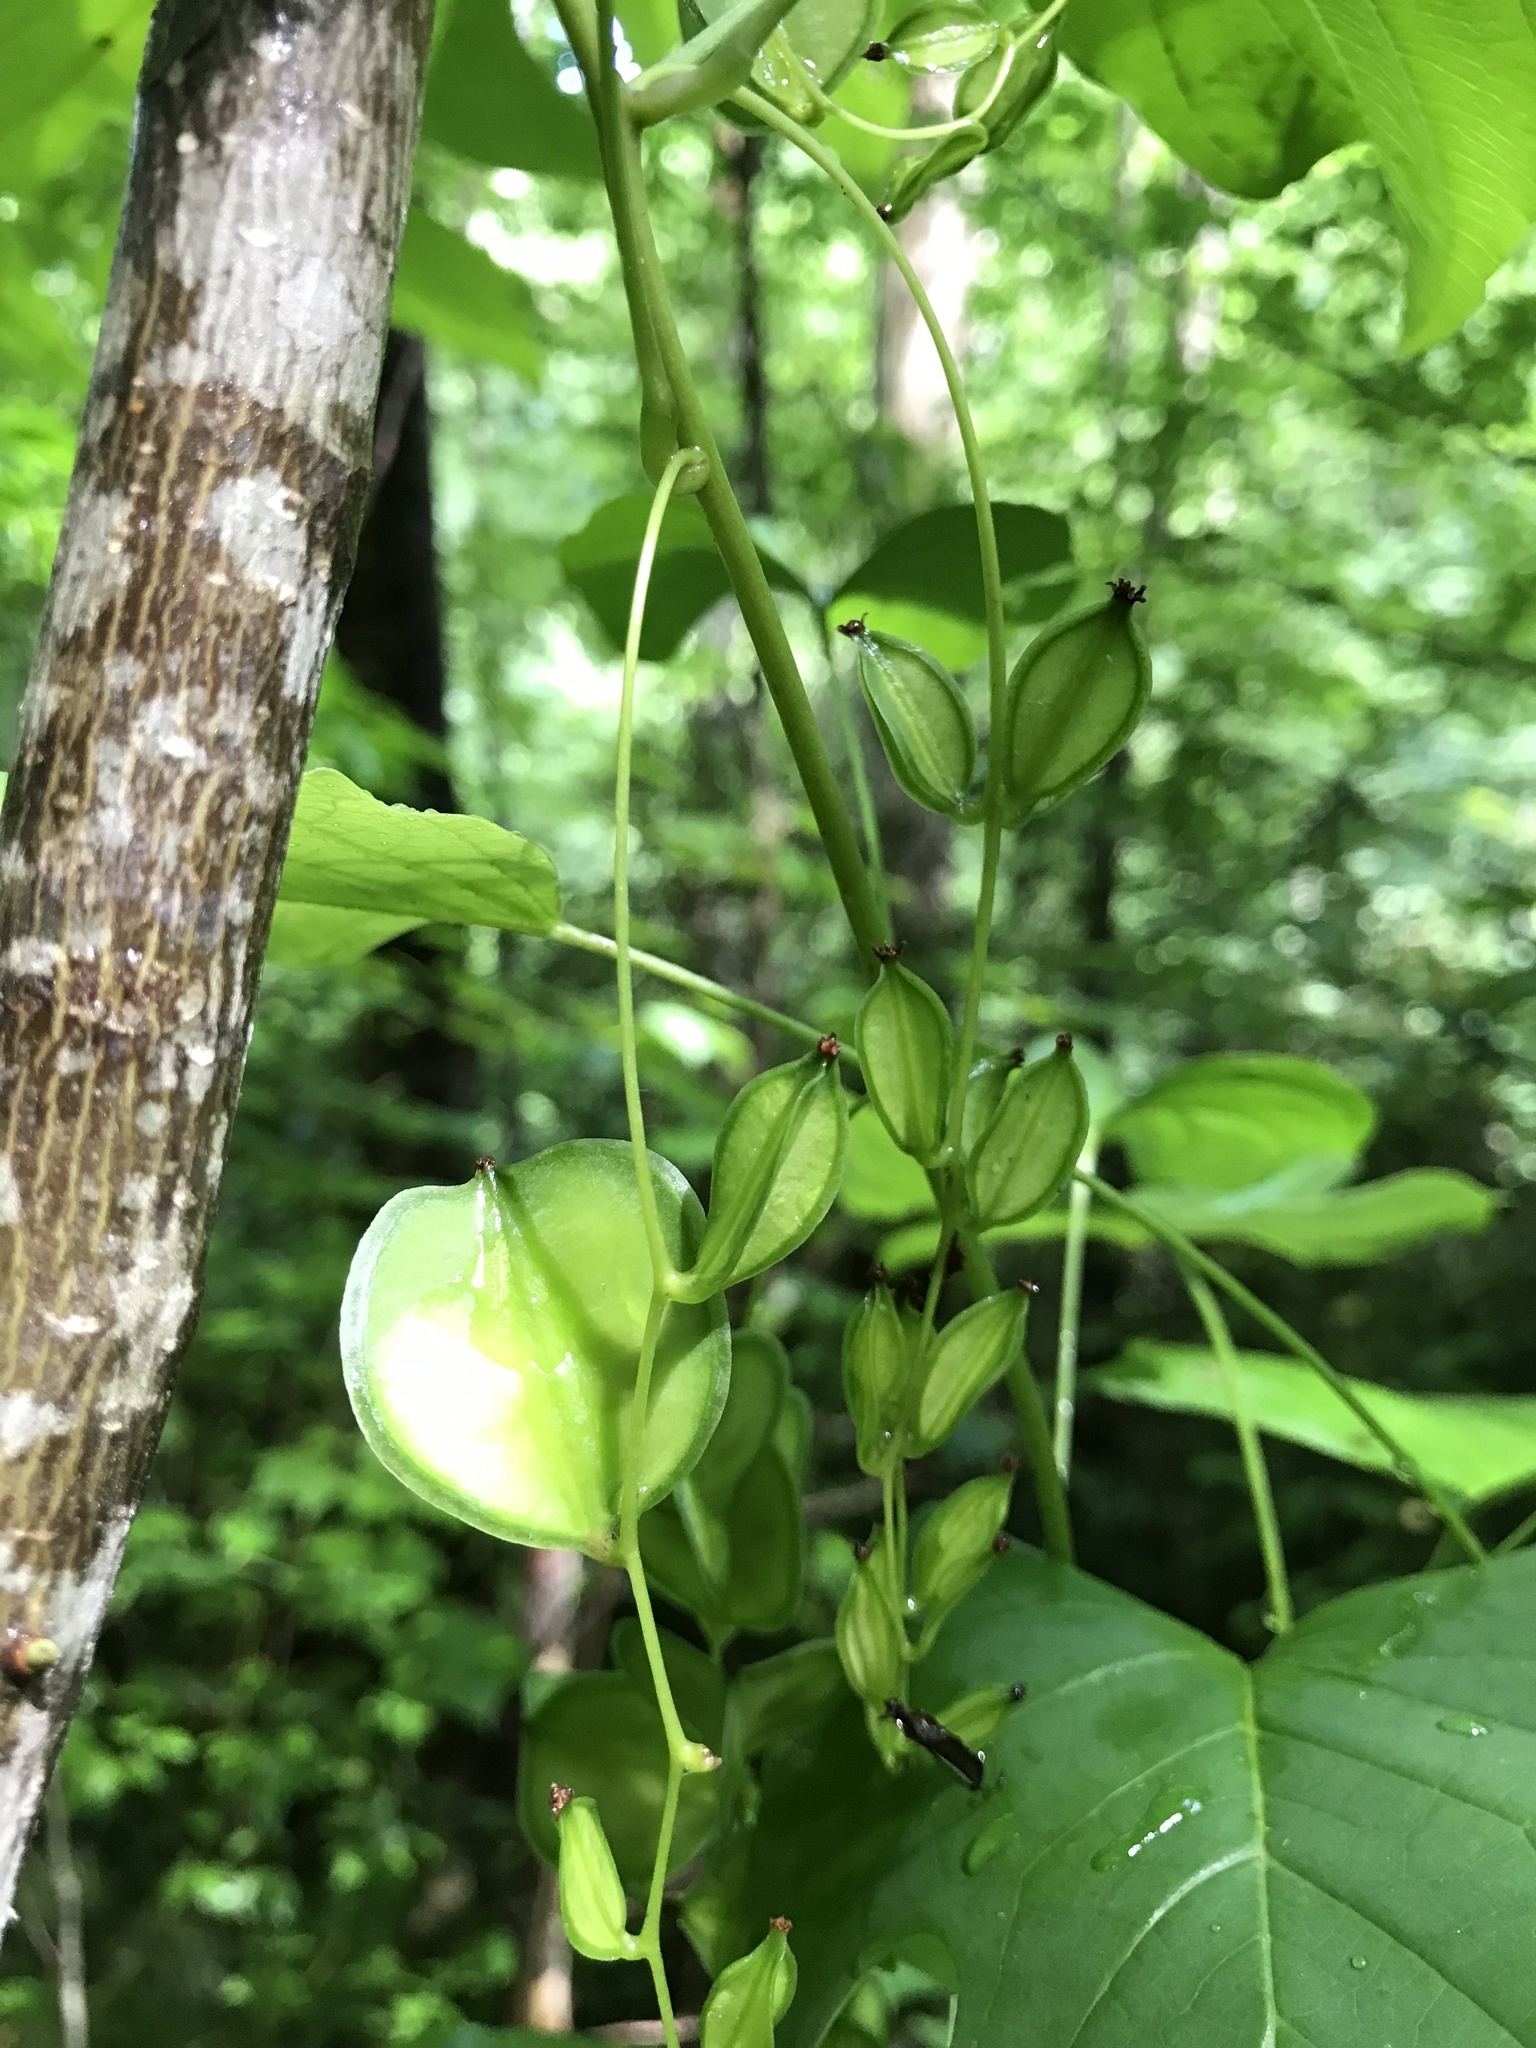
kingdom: Plantae
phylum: Tracheophyta
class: Liliopsida
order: Dioscoreales
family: Dioscoreaceae
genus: Dioscorea
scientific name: Dioscorea villosa
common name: Wild yam
